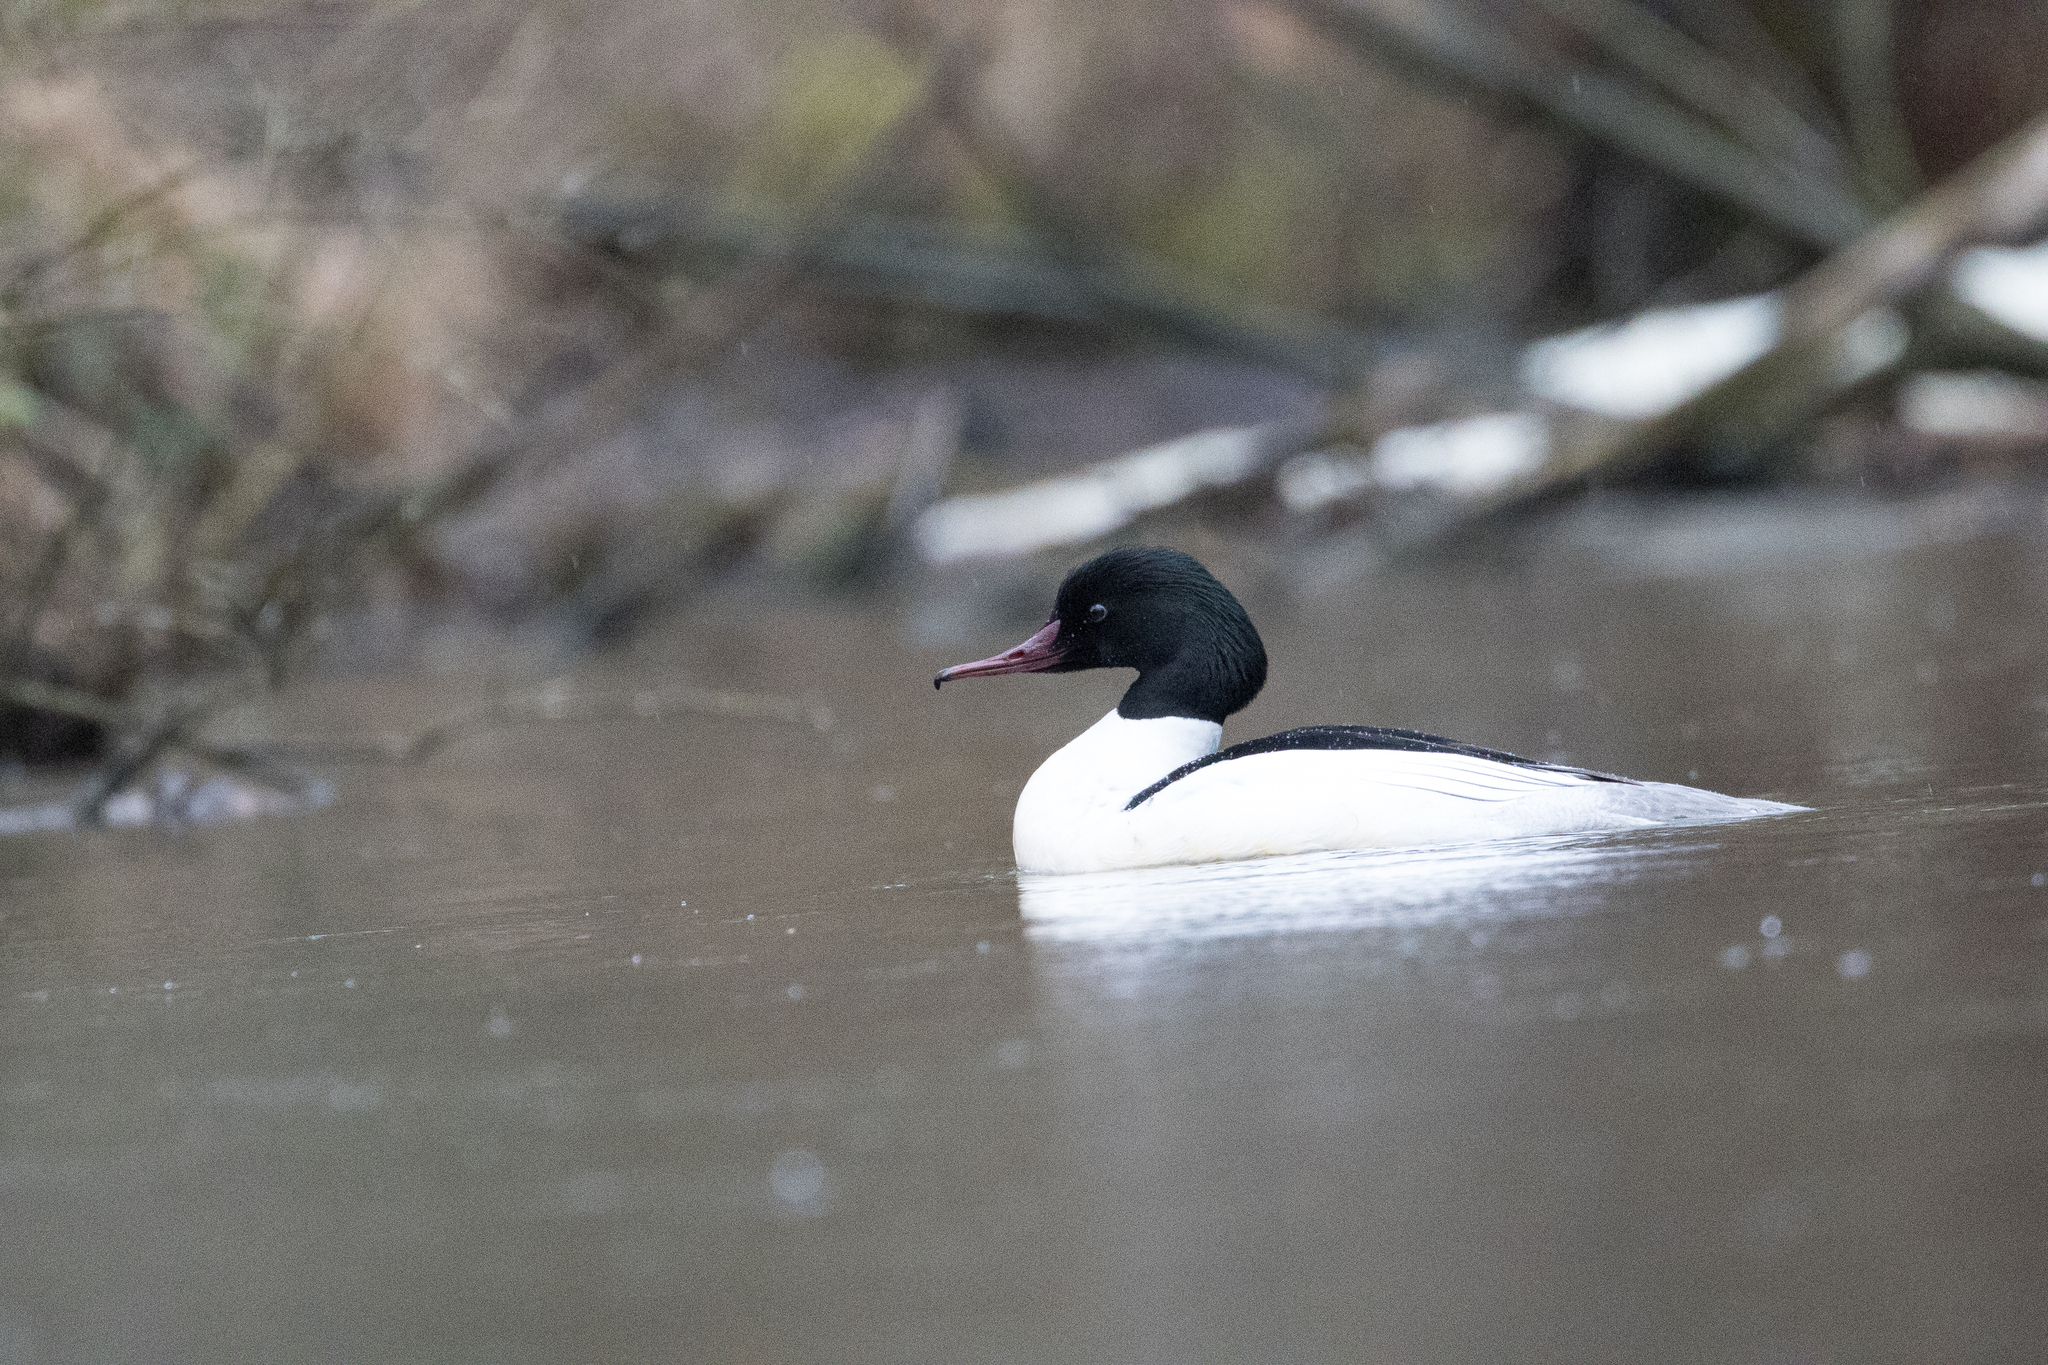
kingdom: Animalia
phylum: Chordata
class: Aves
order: Anseriformes
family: Anatidae
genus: Mergus
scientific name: Mergus merganser
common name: Common merganser
